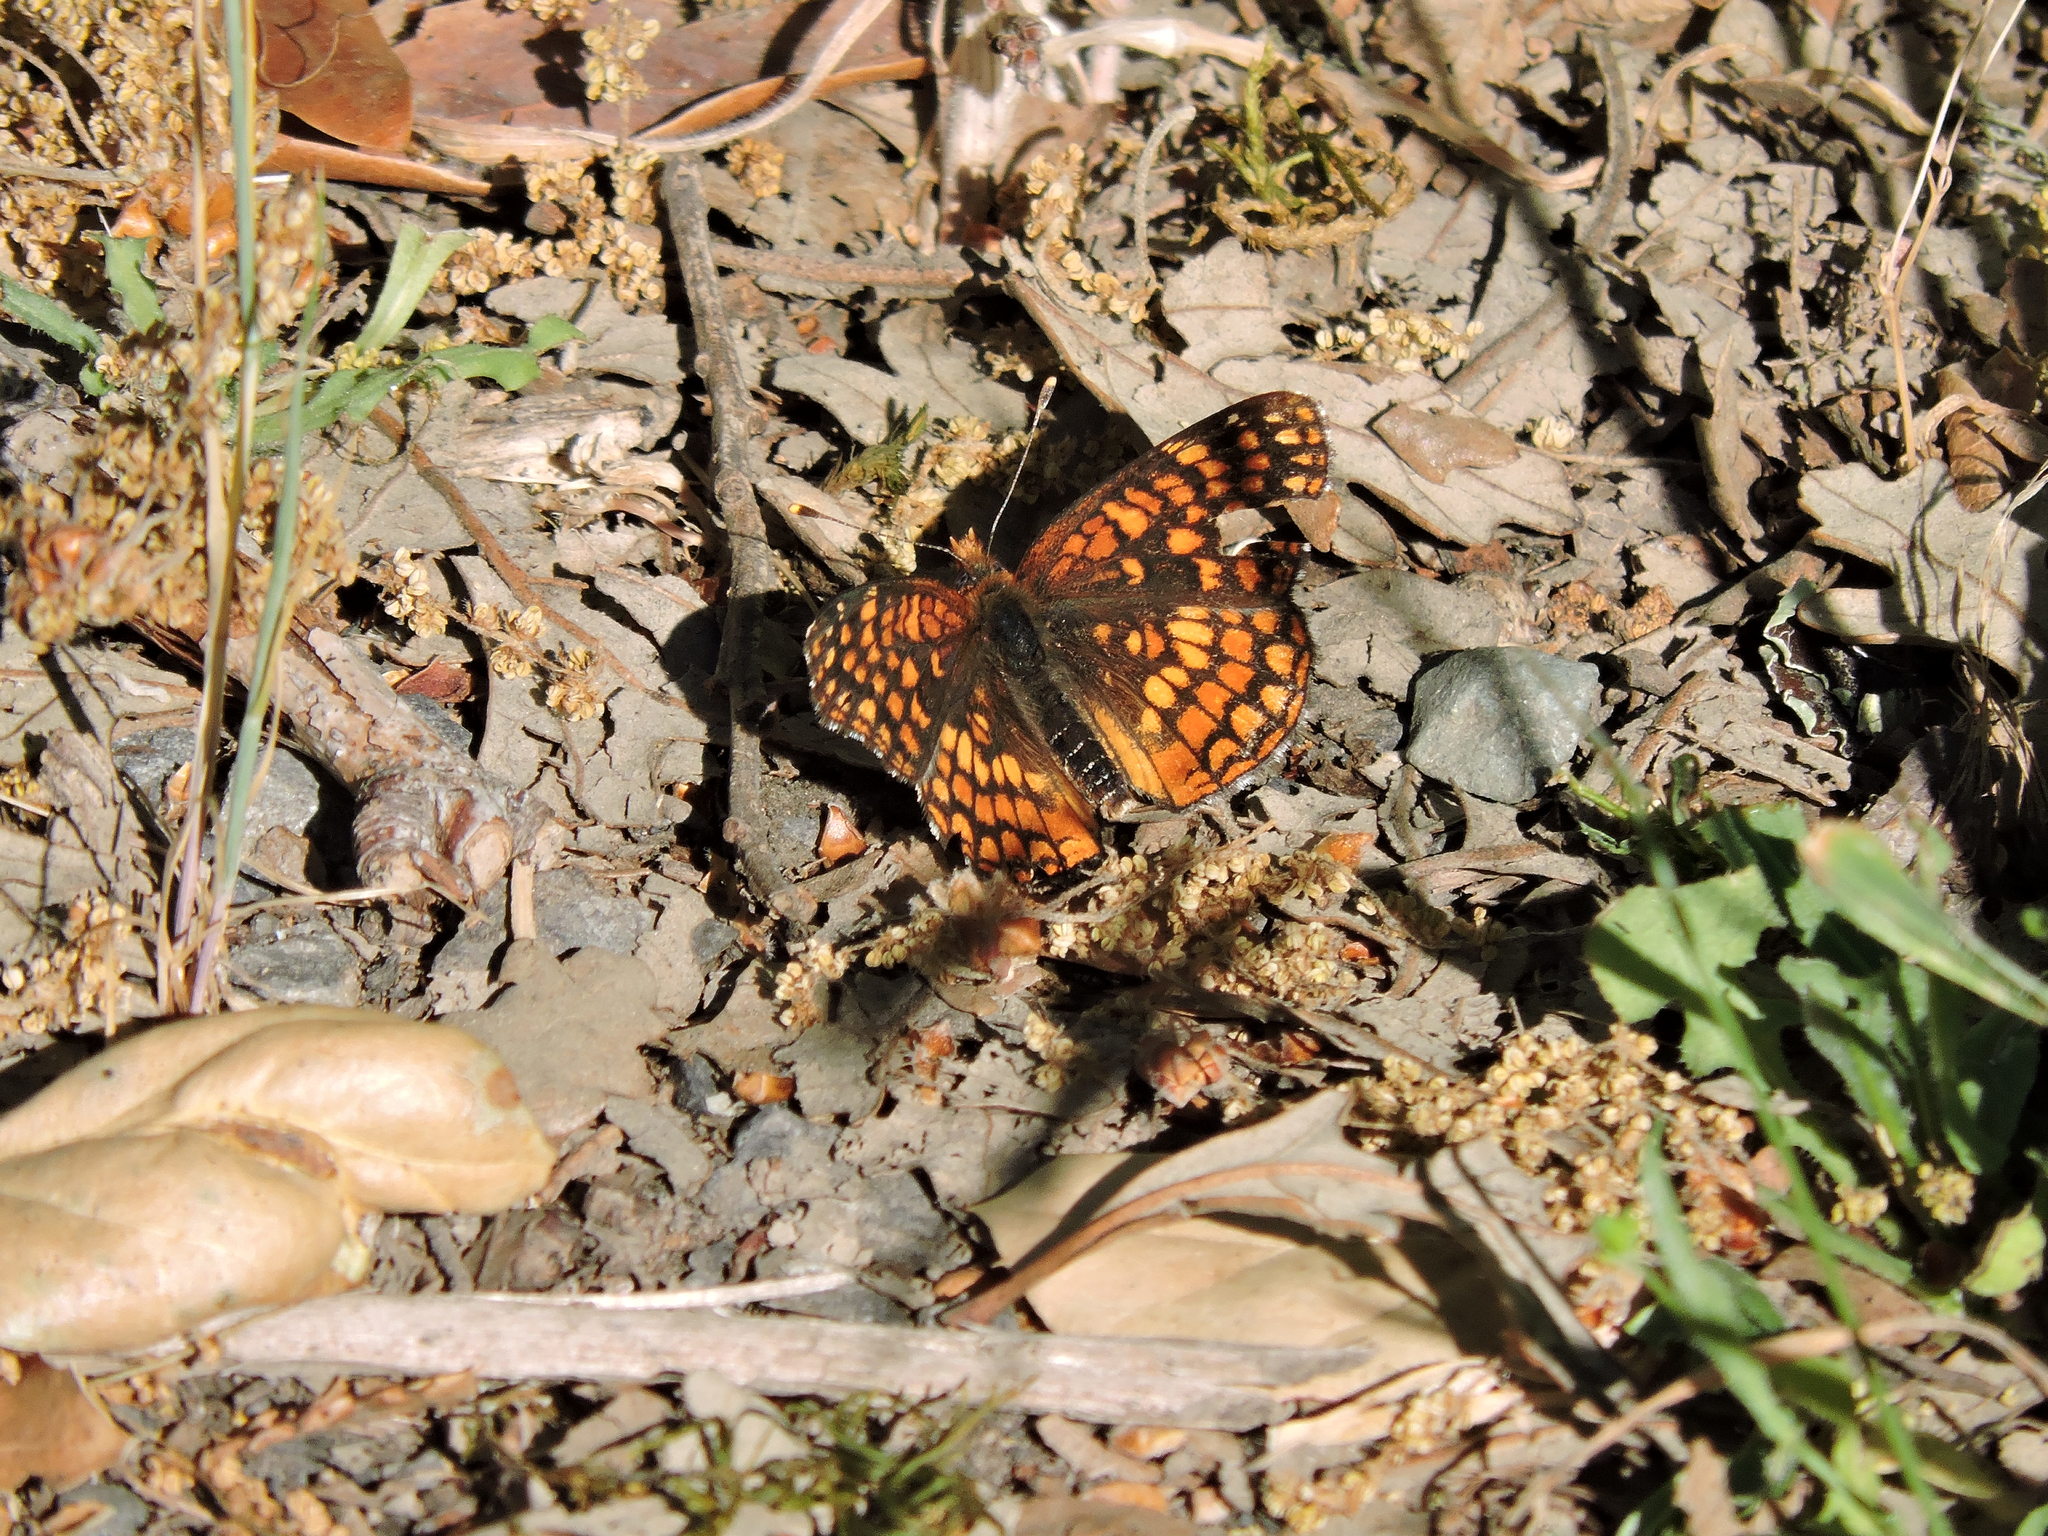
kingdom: Animalia
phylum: Arthropoda
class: Insecta
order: Lepidoptera
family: Nymphalidae
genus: Chlosyne
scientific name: Chlosyne palla
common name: Northern checkerspot
